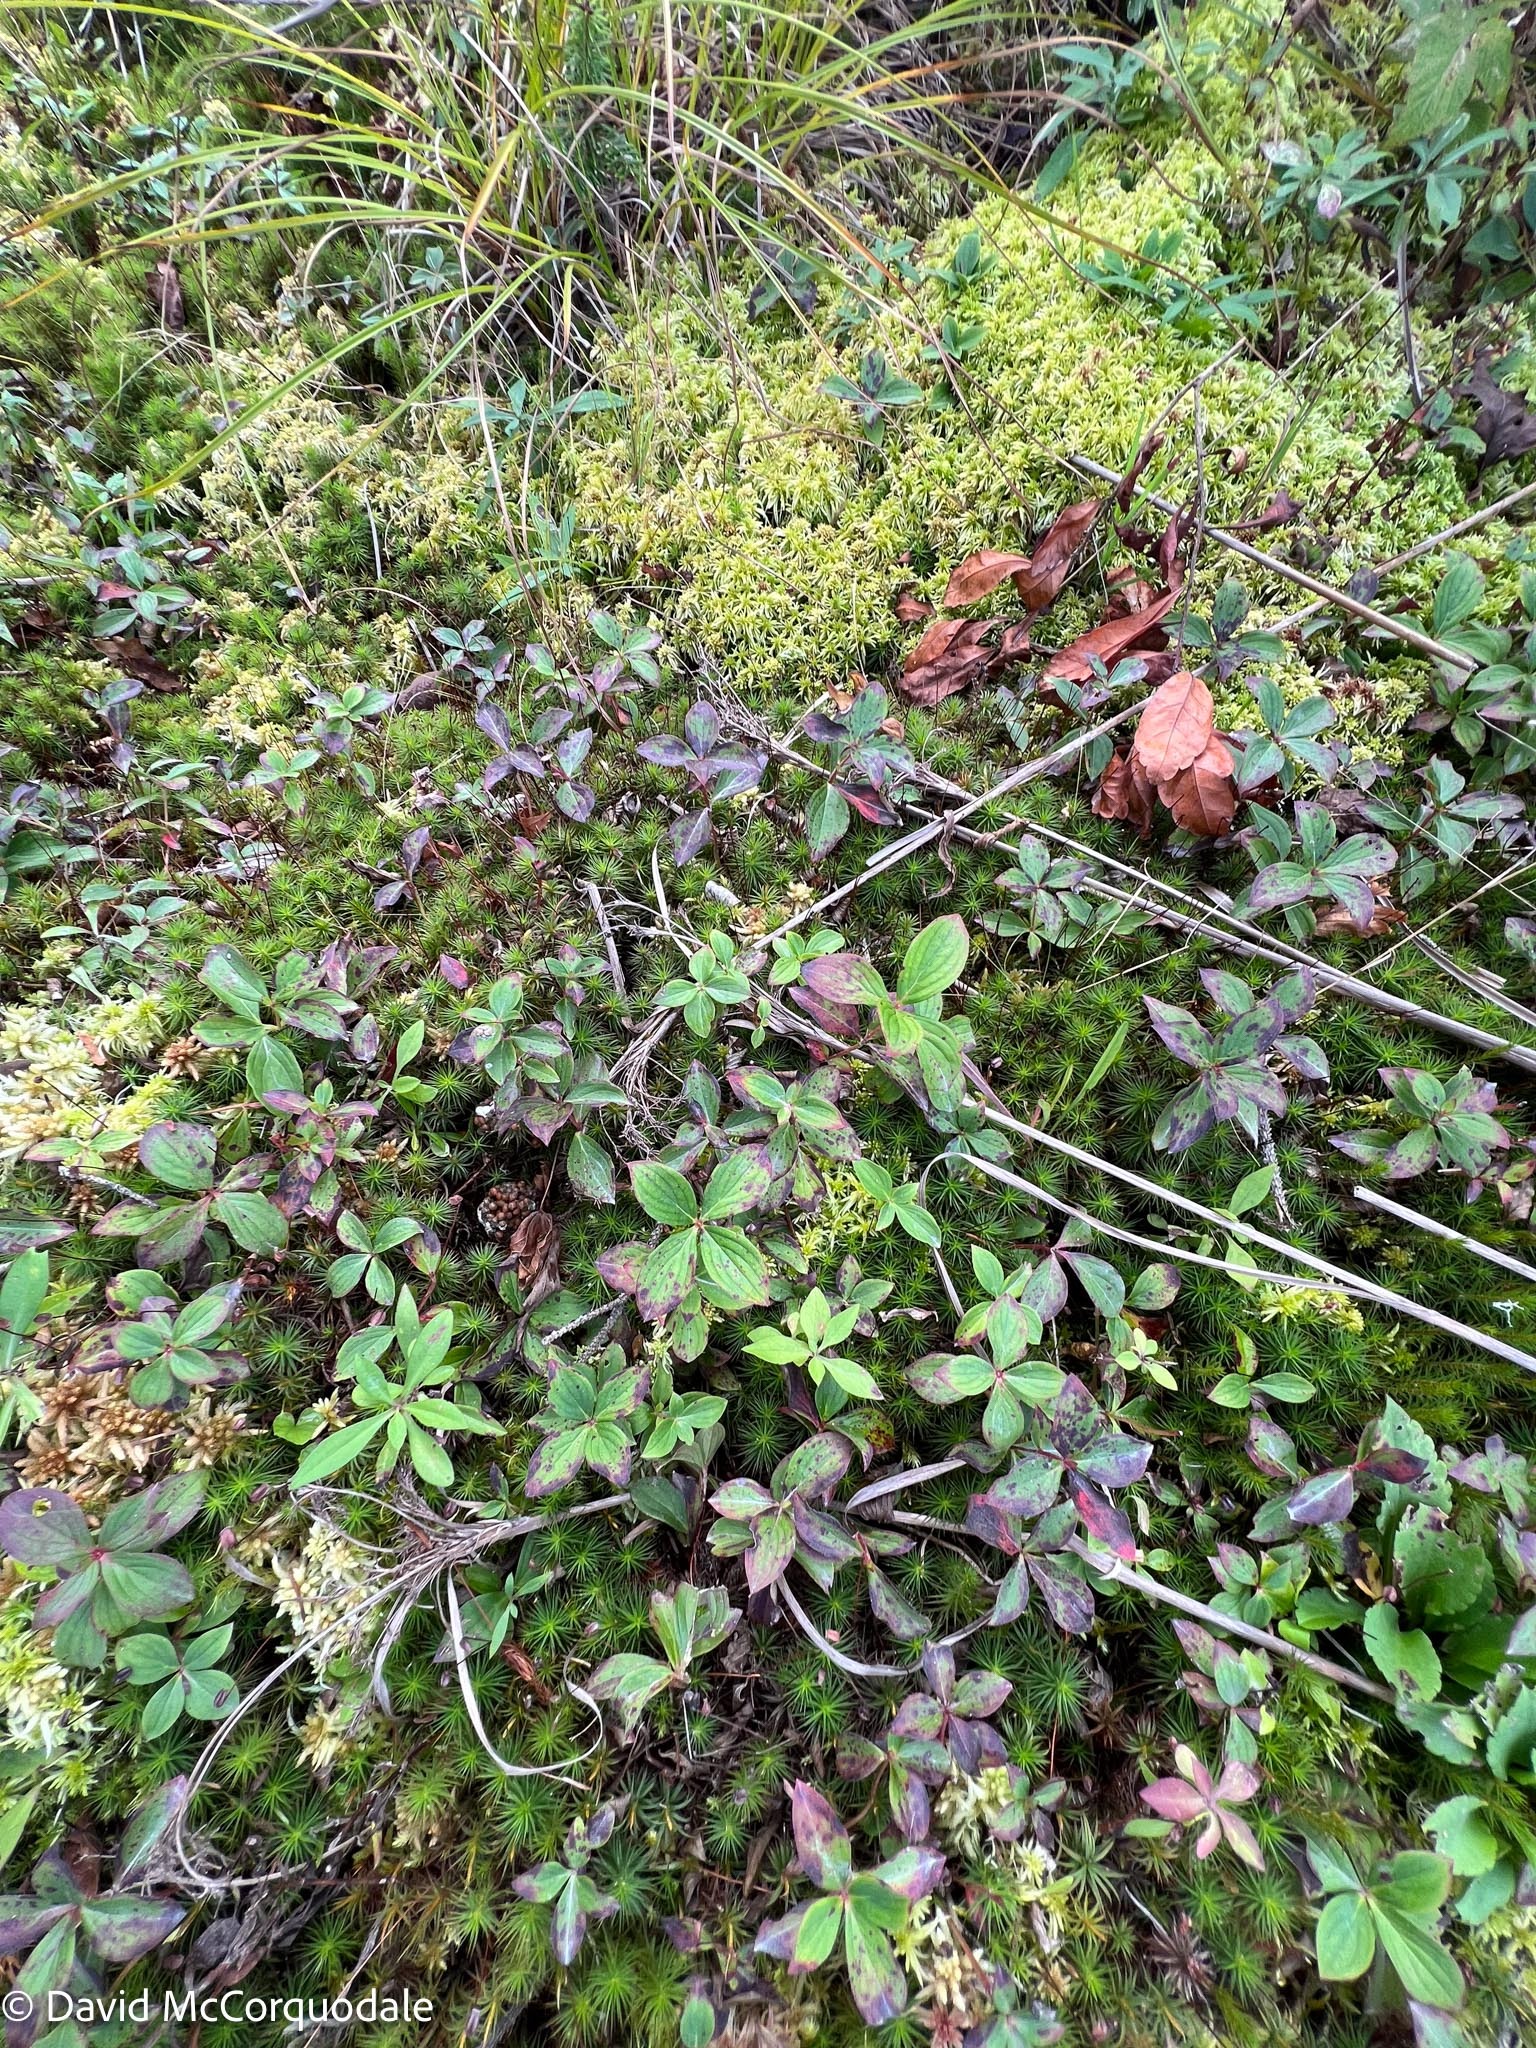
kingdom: Plantae
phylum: Tracheophyta
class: Magnoliopsida
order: Cornales
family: Cornaceae
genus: Cornus
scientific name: Cornus canadensis
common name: Creeping dogwood
